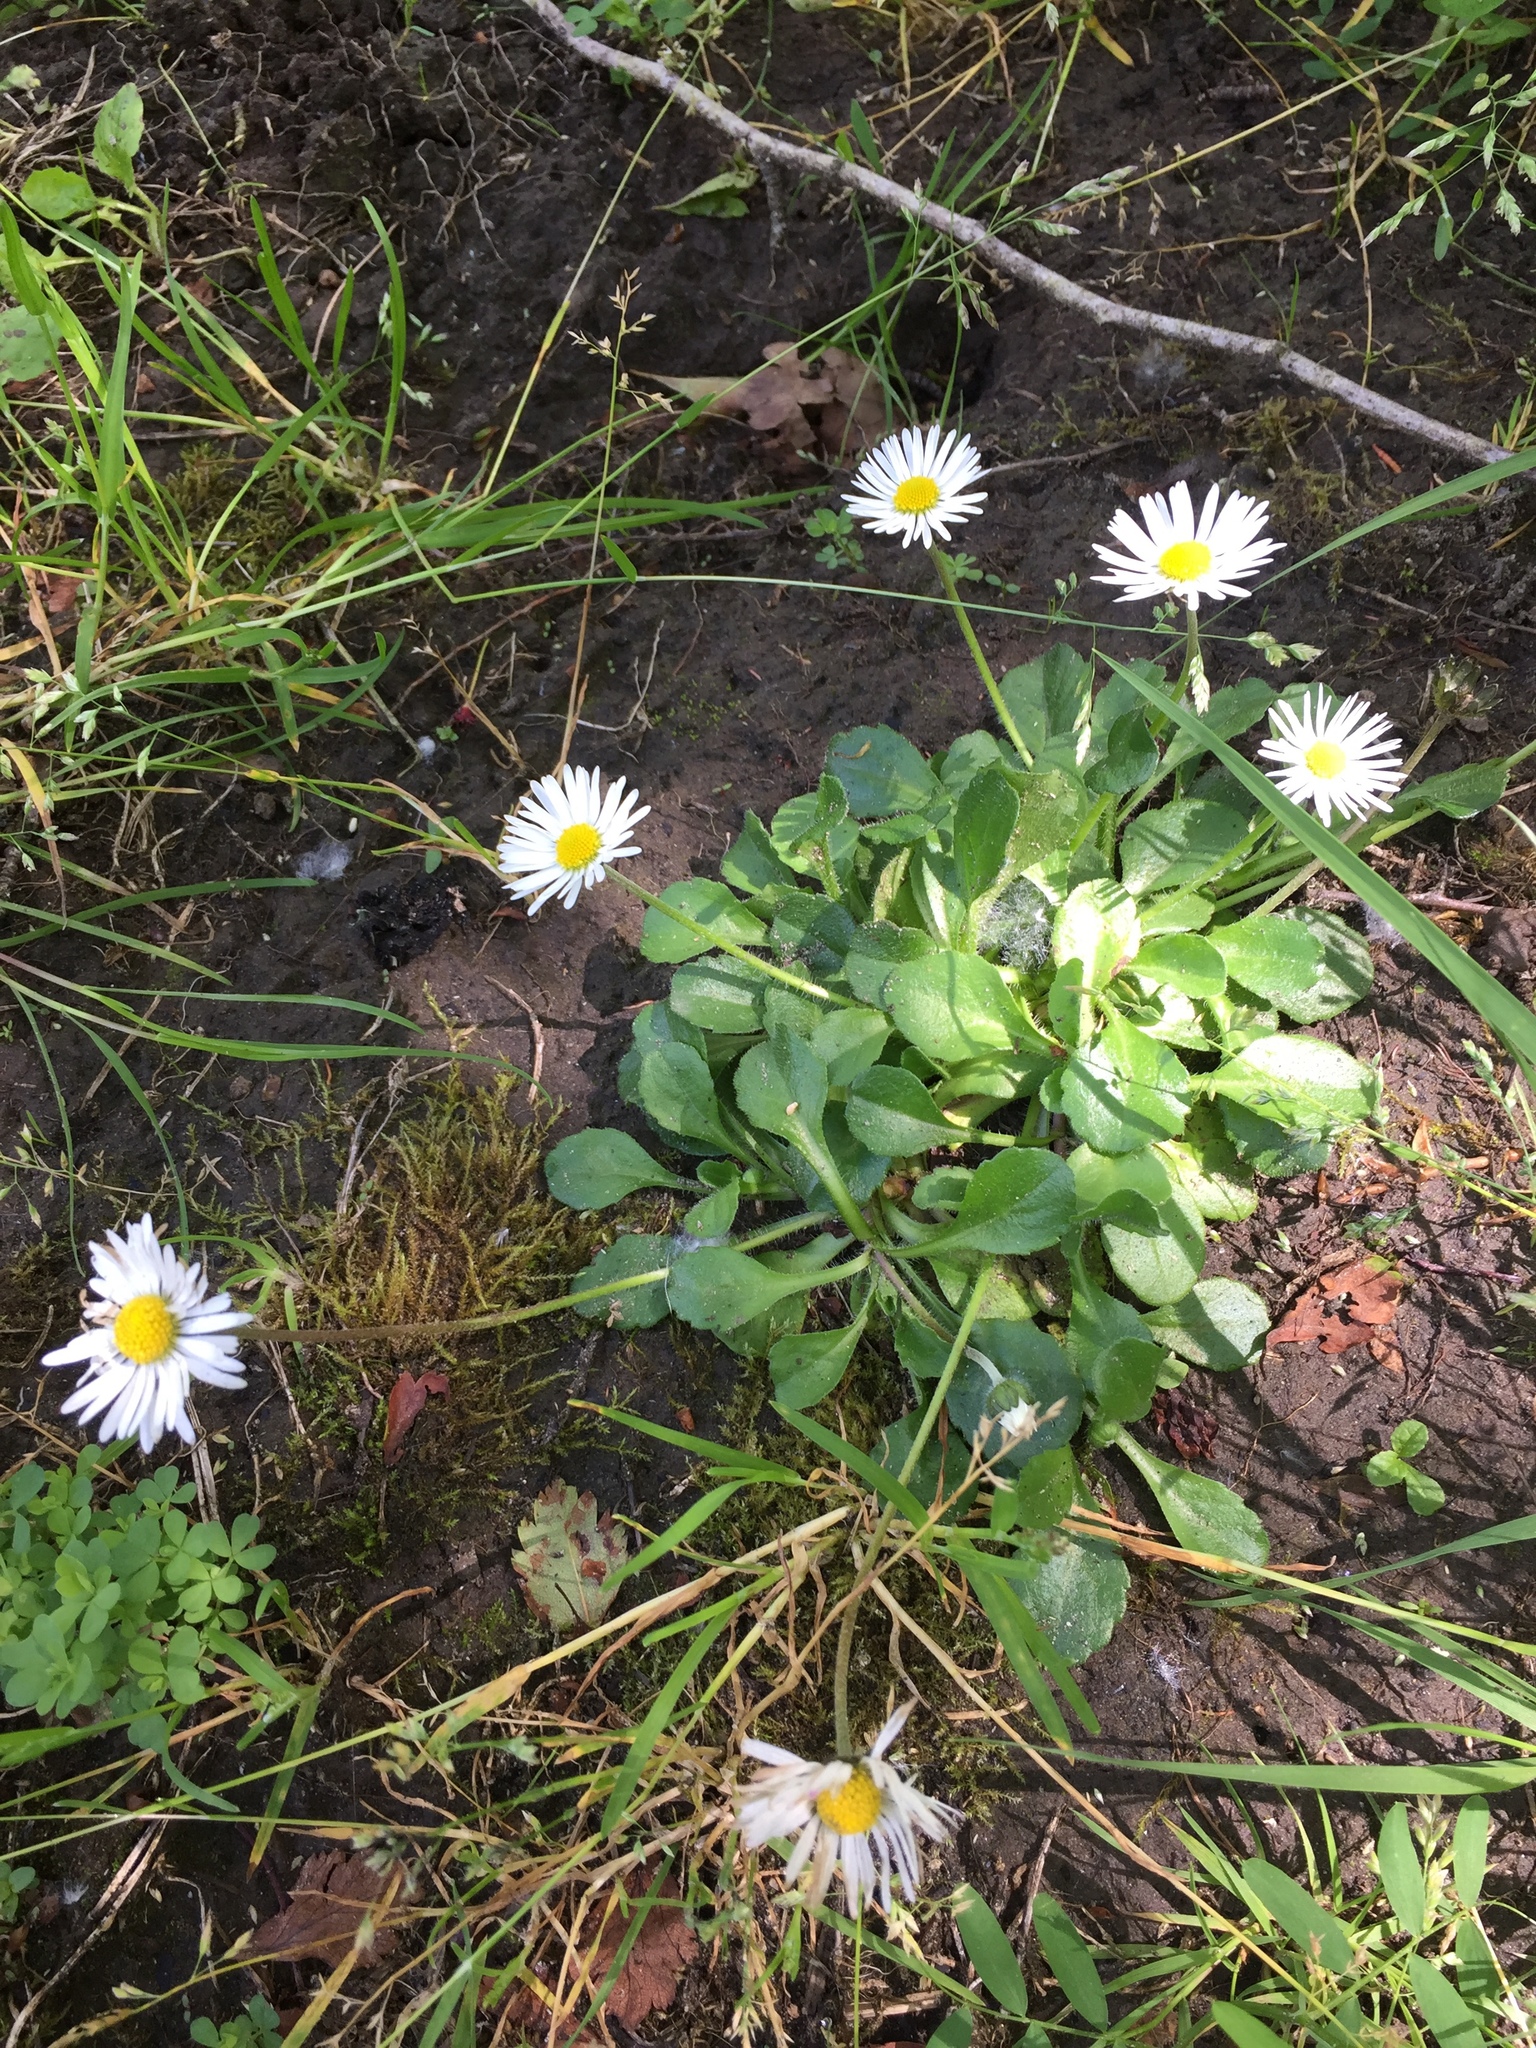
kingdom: Plantae
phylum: Tracheophyta
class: Magnoliopsida
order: Asterales
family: Asteraceae
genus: Bellis
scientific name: Bellis perennis
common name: Lawndaisy
